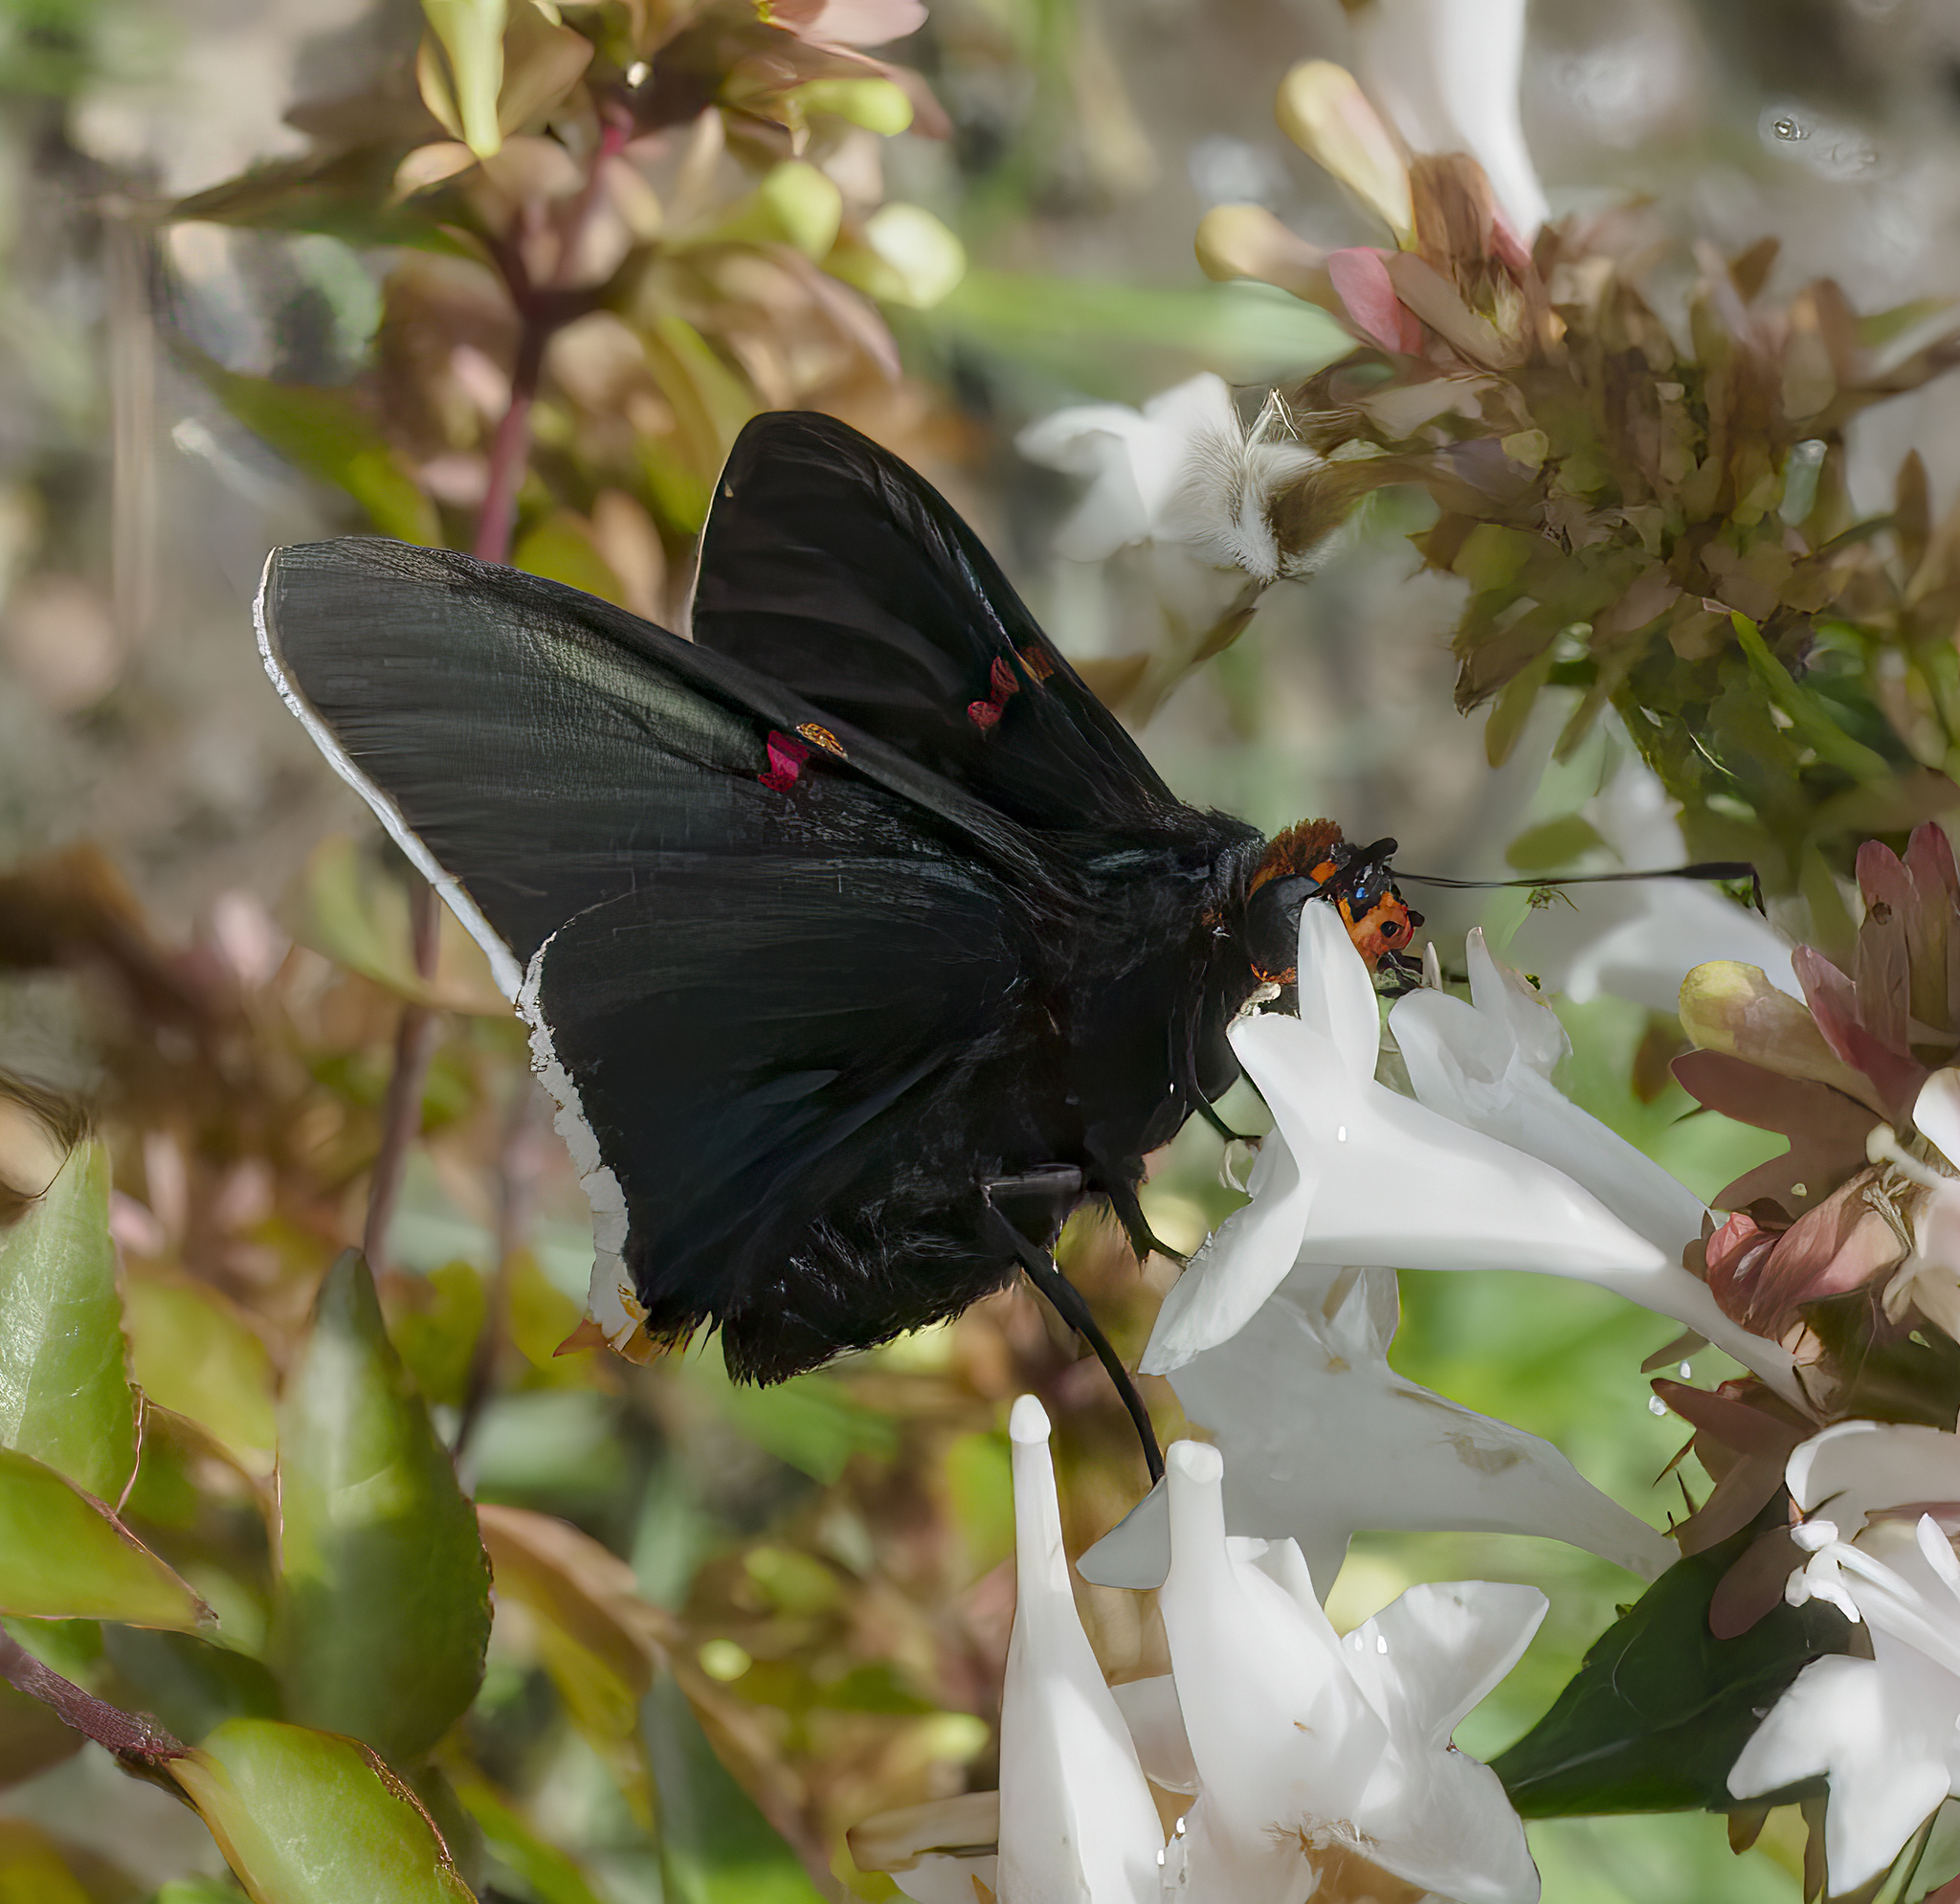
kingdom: Animalia
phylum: Arthropoda
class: Insecta
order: Lepidoptera
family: Hesperiidae
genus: Phocides
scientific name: Phocides polybius
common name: Guava skipper
